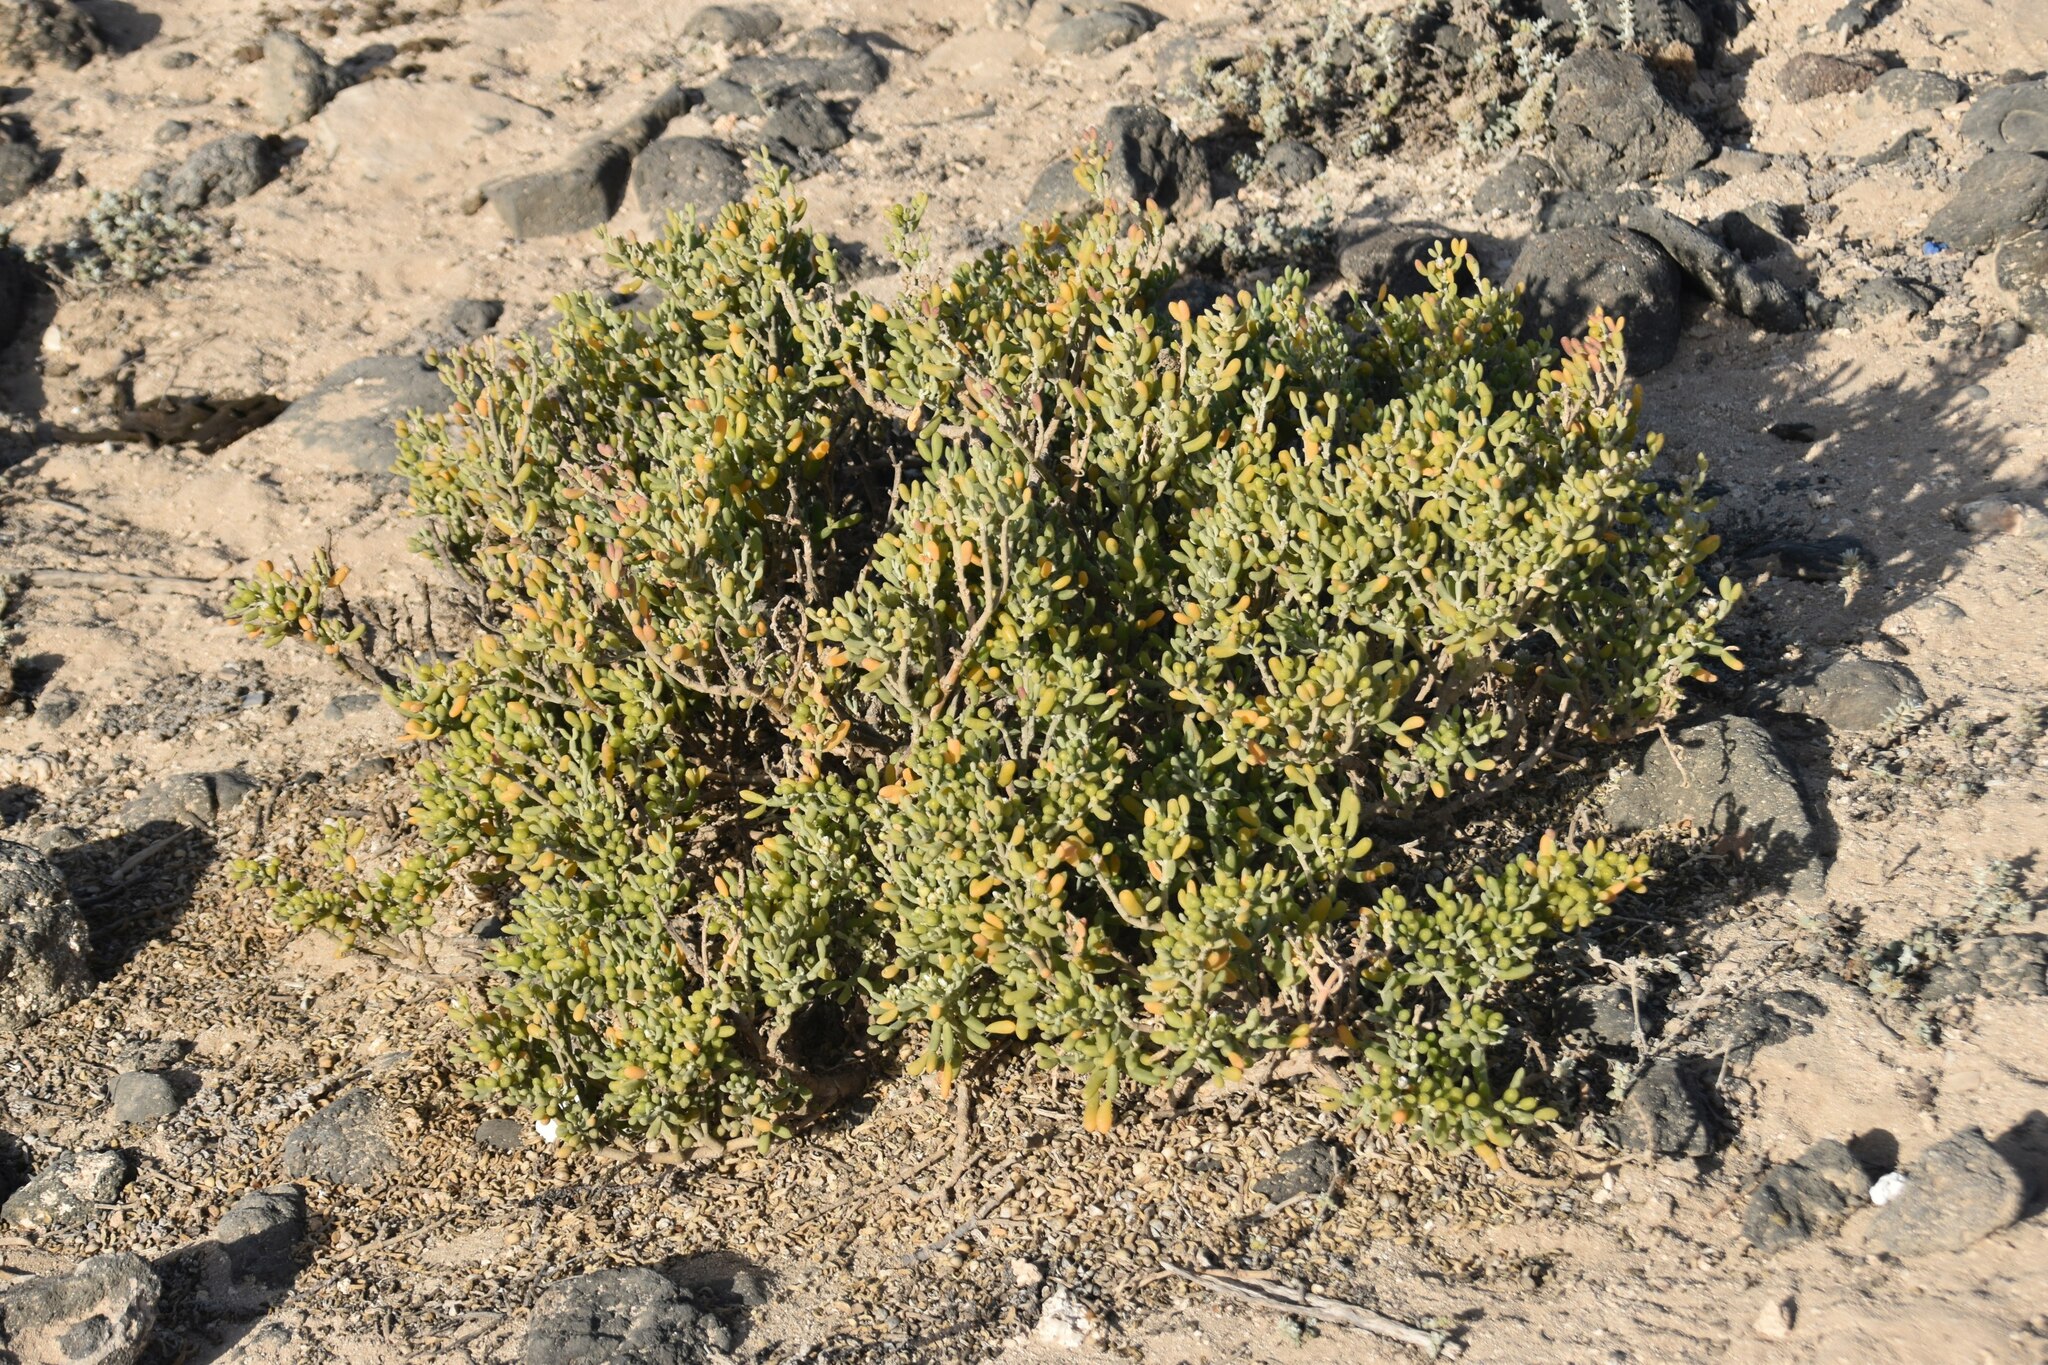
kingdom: Plantae
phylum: Tracheophyta
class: Magnoliopsida
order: Zygophyllales
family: Zygophyllaceae
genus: Tetraena
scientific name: Tetraena fontanesii
